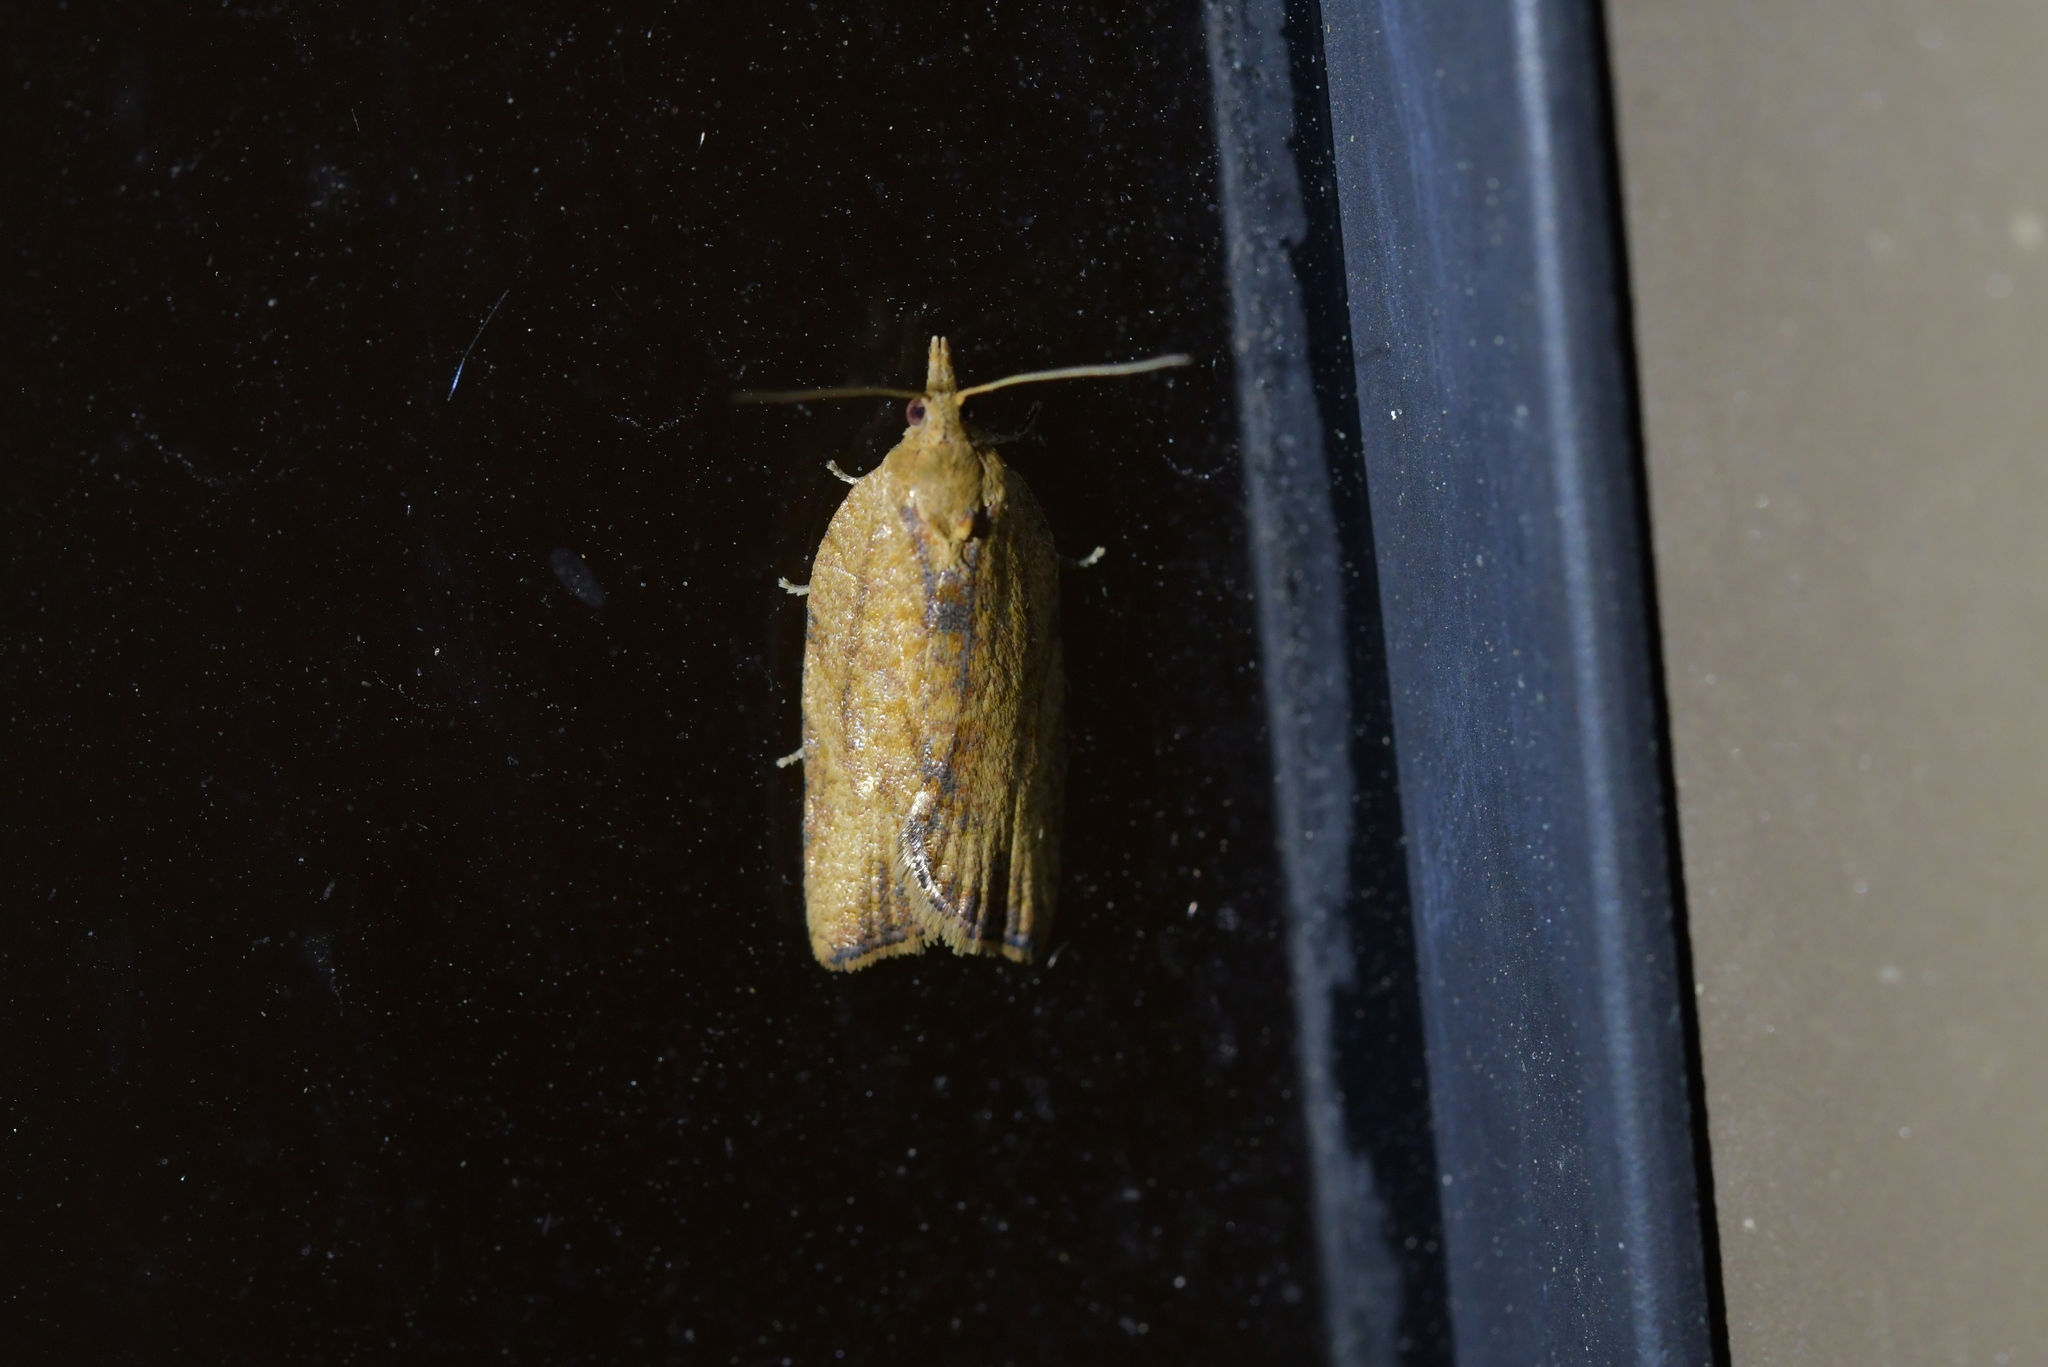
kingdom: Animalia
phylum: Arthropoda
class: Insecta
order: Lepidoptera
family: Tortricidae
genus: Epiphyas
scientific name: Epiphyas postvittana
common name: Light brown apple moth
